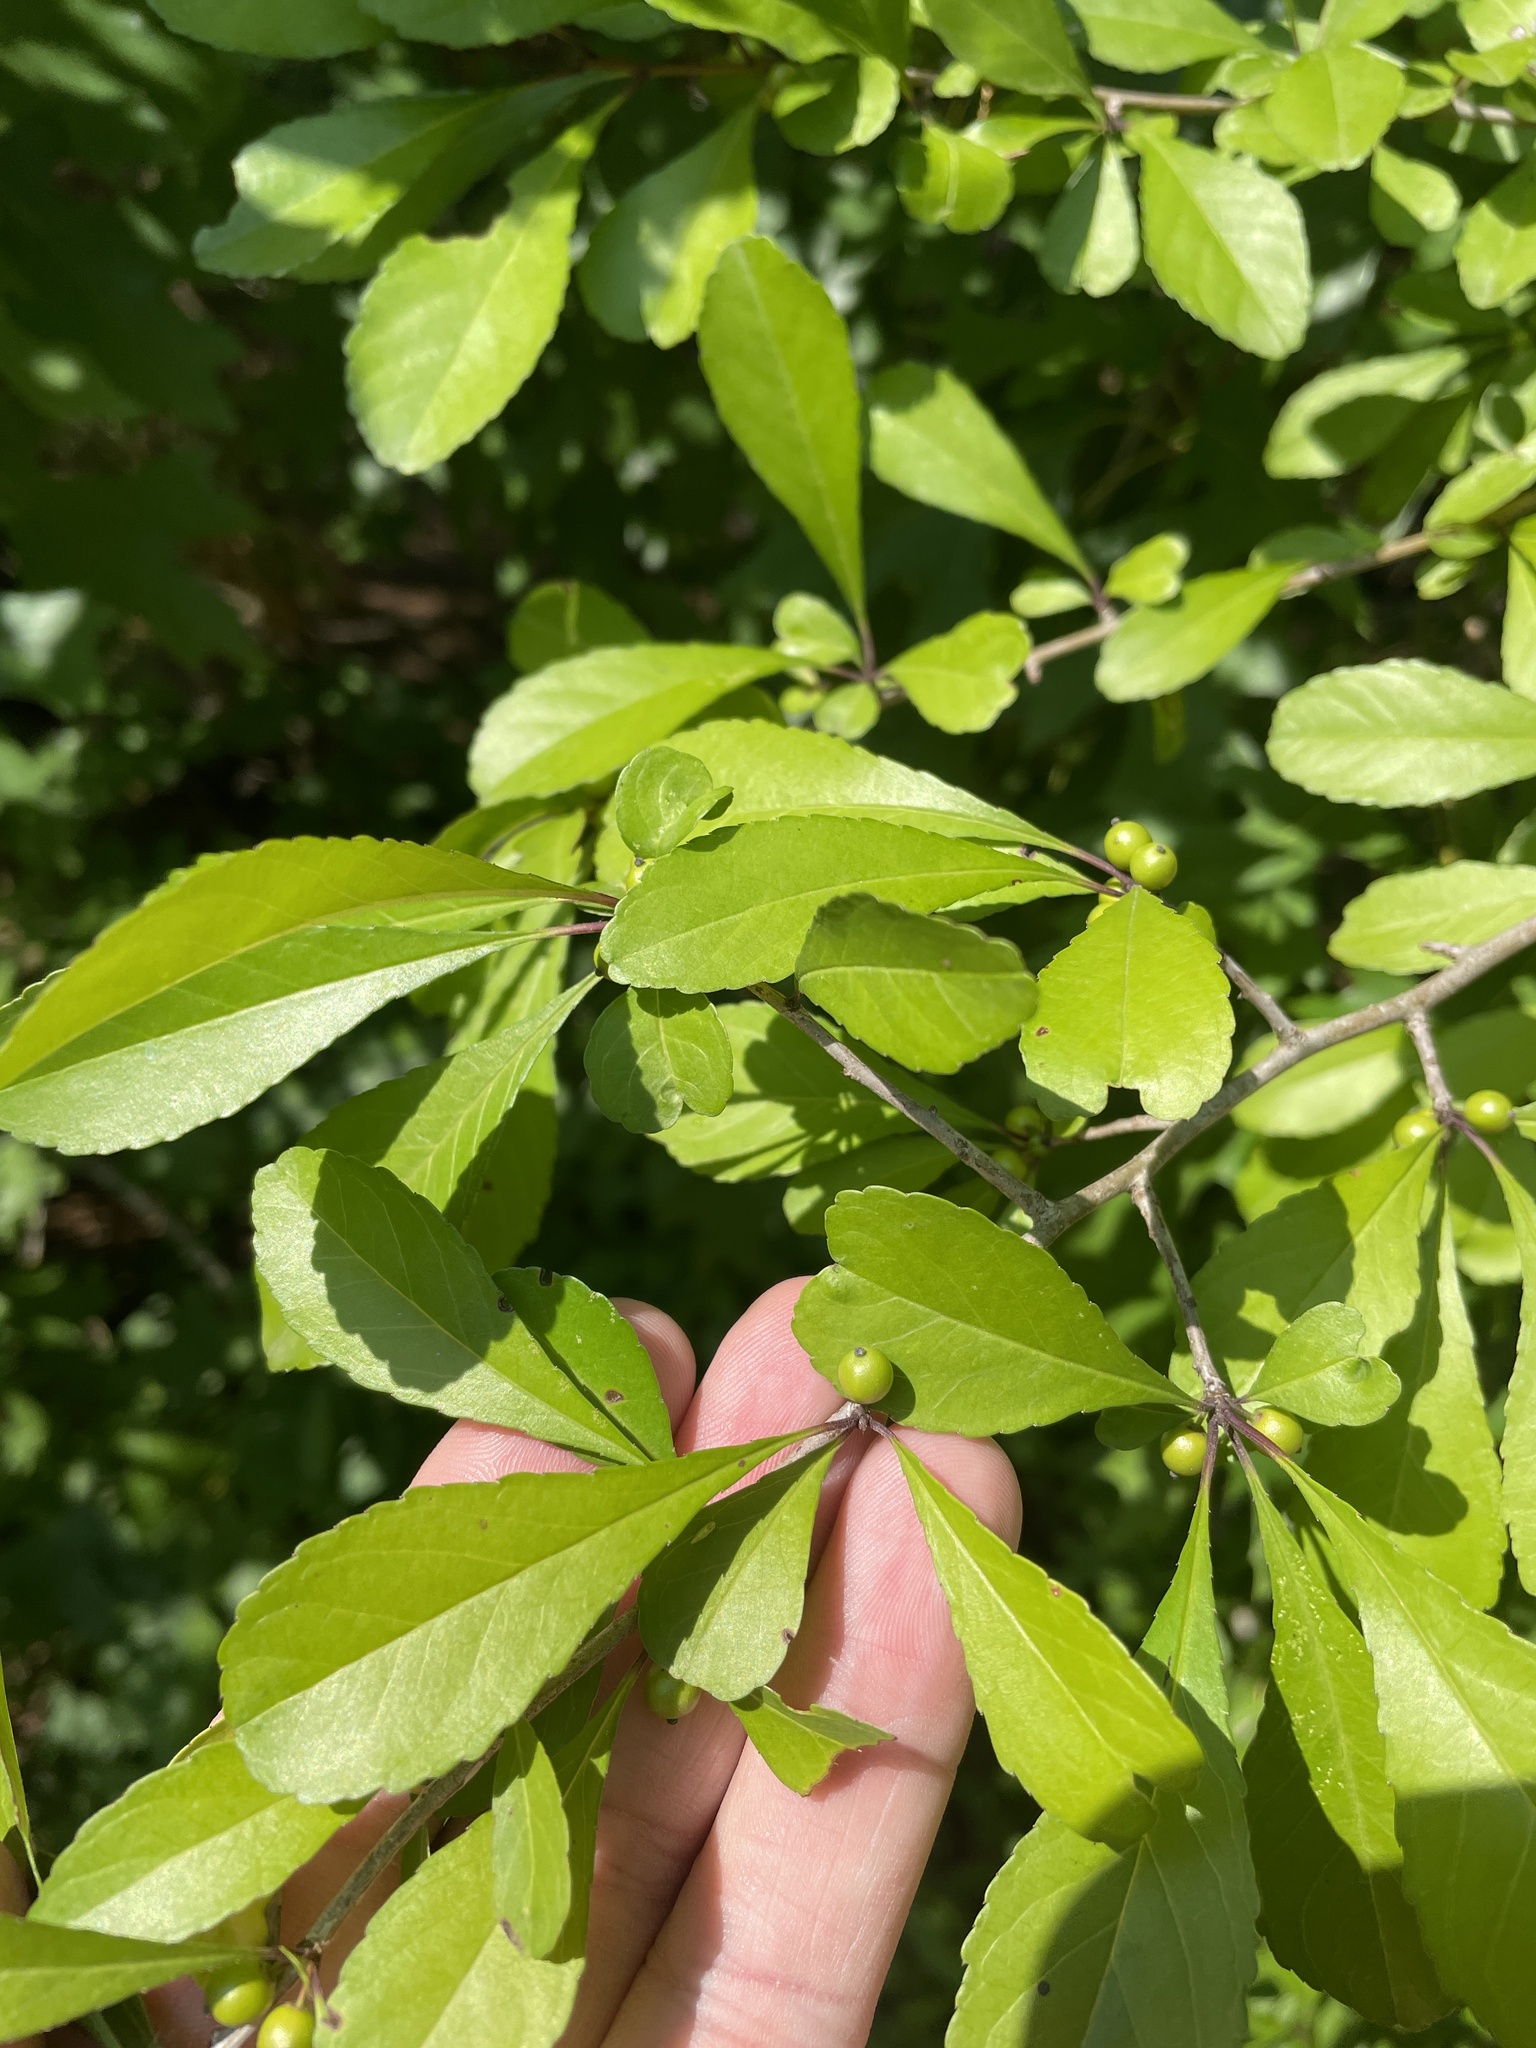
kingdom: Plantae
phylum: Tracheophyta
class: Magnoliopsida
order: Aquifoliales
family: Aquifoliaceae
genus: Ilex
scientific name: Ilex decidua
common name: Possum-haw
